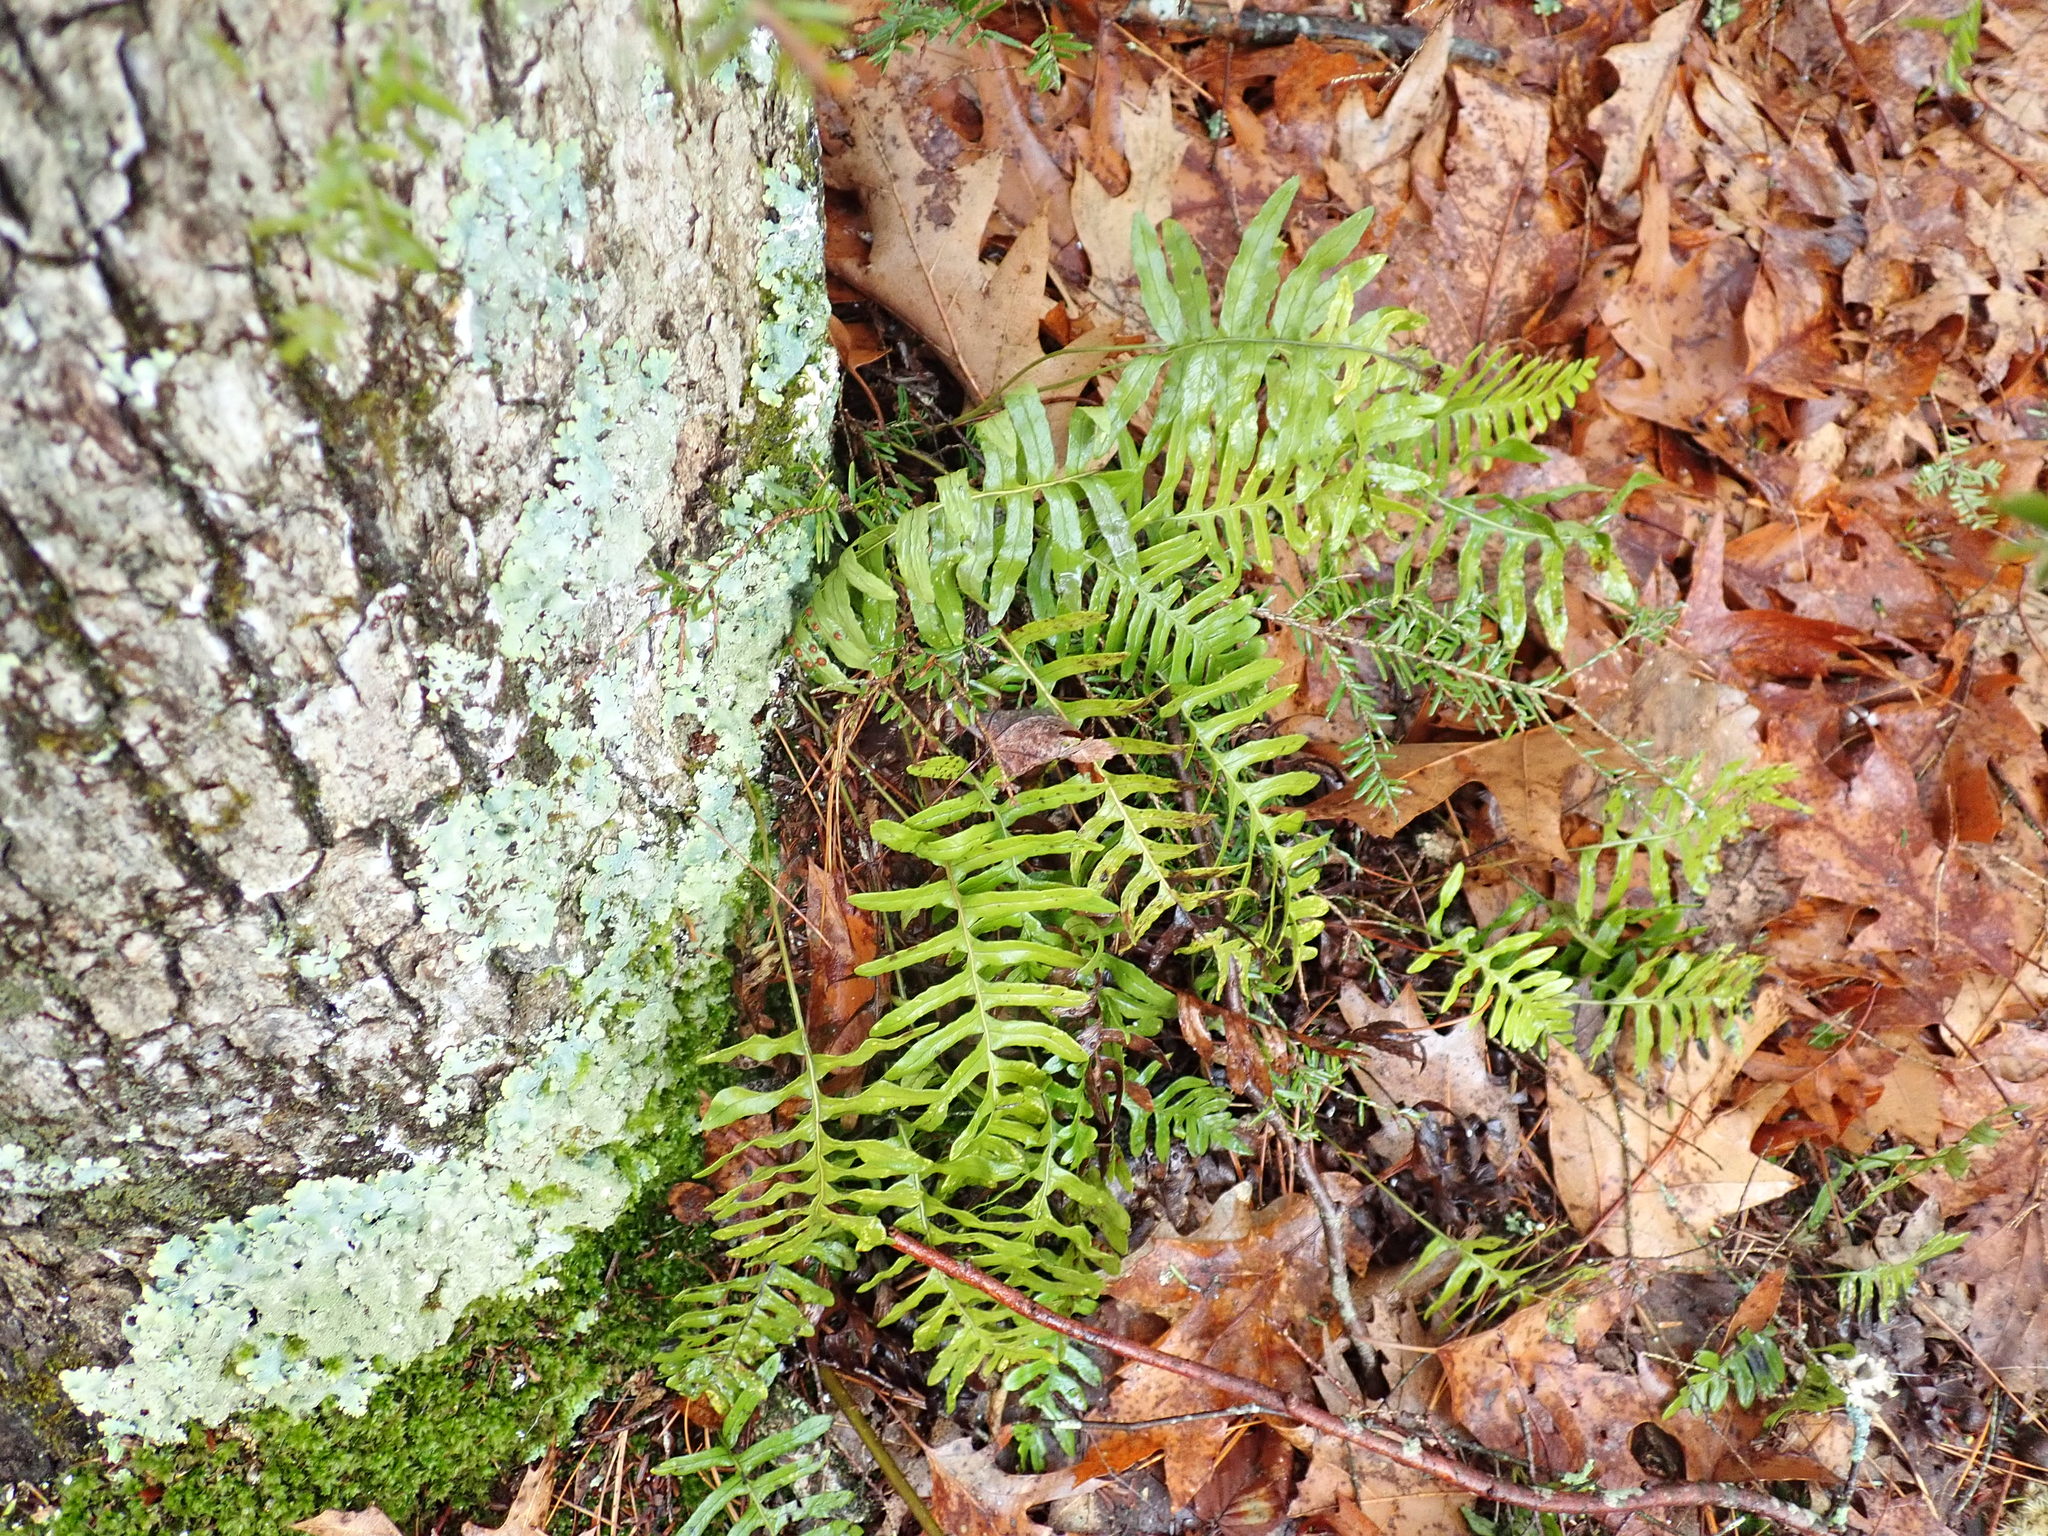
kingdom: Plantae
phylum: Tracheophyta
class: Polypodiopsida
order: Polypodiales
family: Polypodiaceae
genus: Polypodium
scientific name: Polypodium
